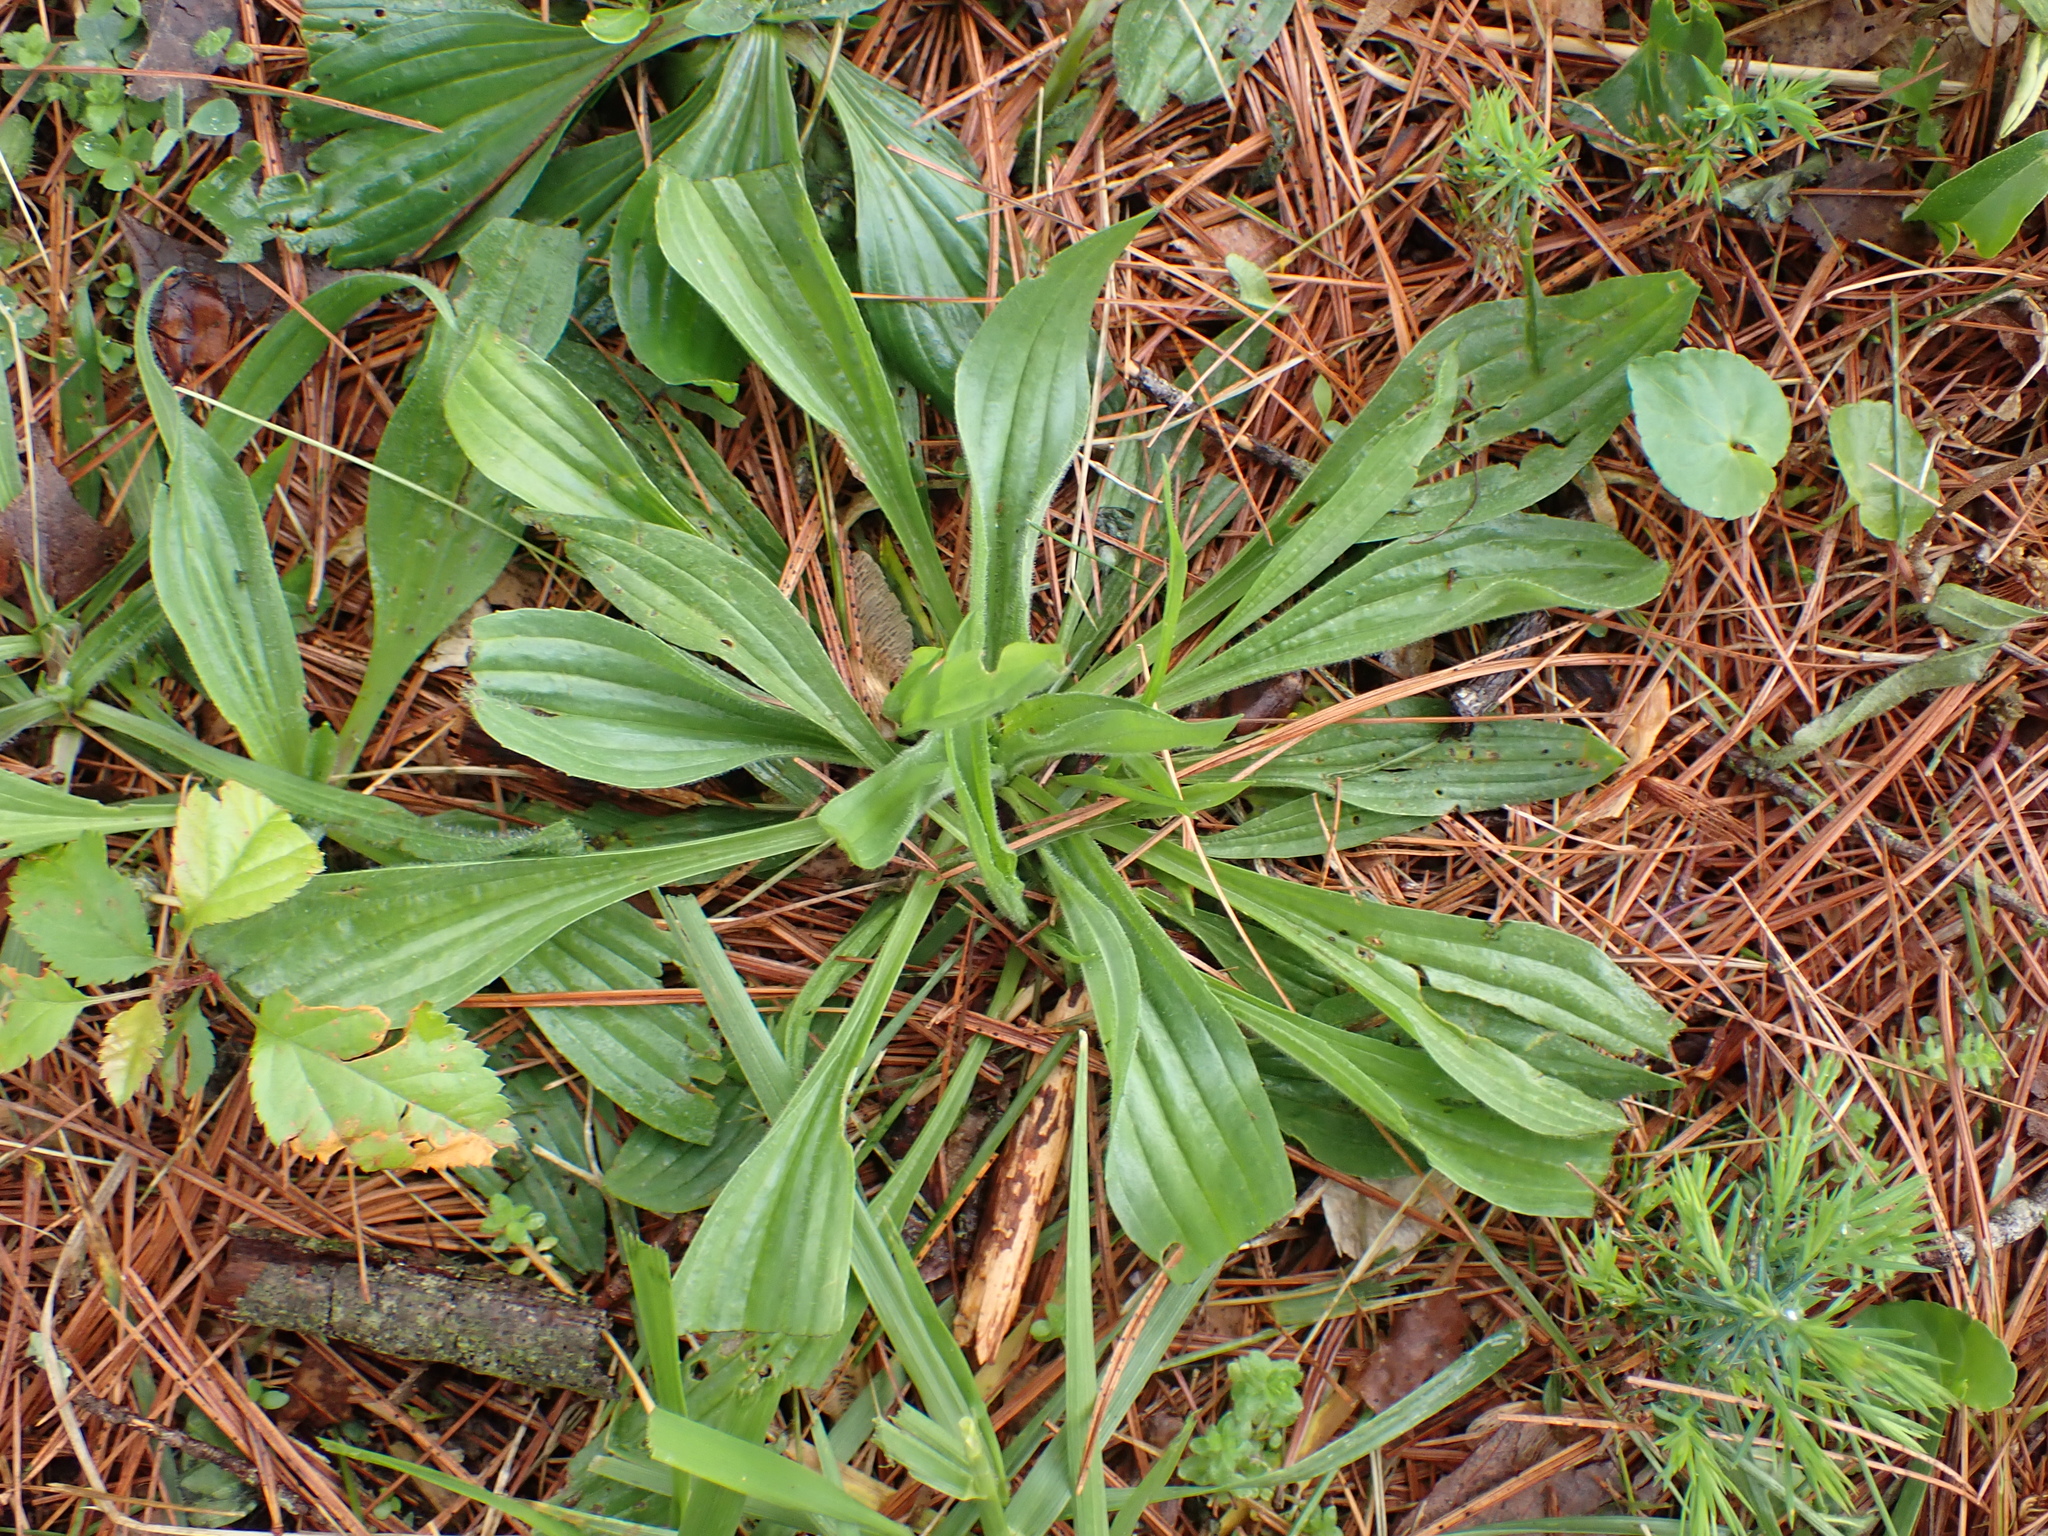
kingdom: Plantae
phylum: Tracheophyta
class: Magnoliopsida
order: Lamiales
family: Plantaginaceae
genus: Plantago
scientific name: Plantago lanceolata
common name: Ribwort plantain
